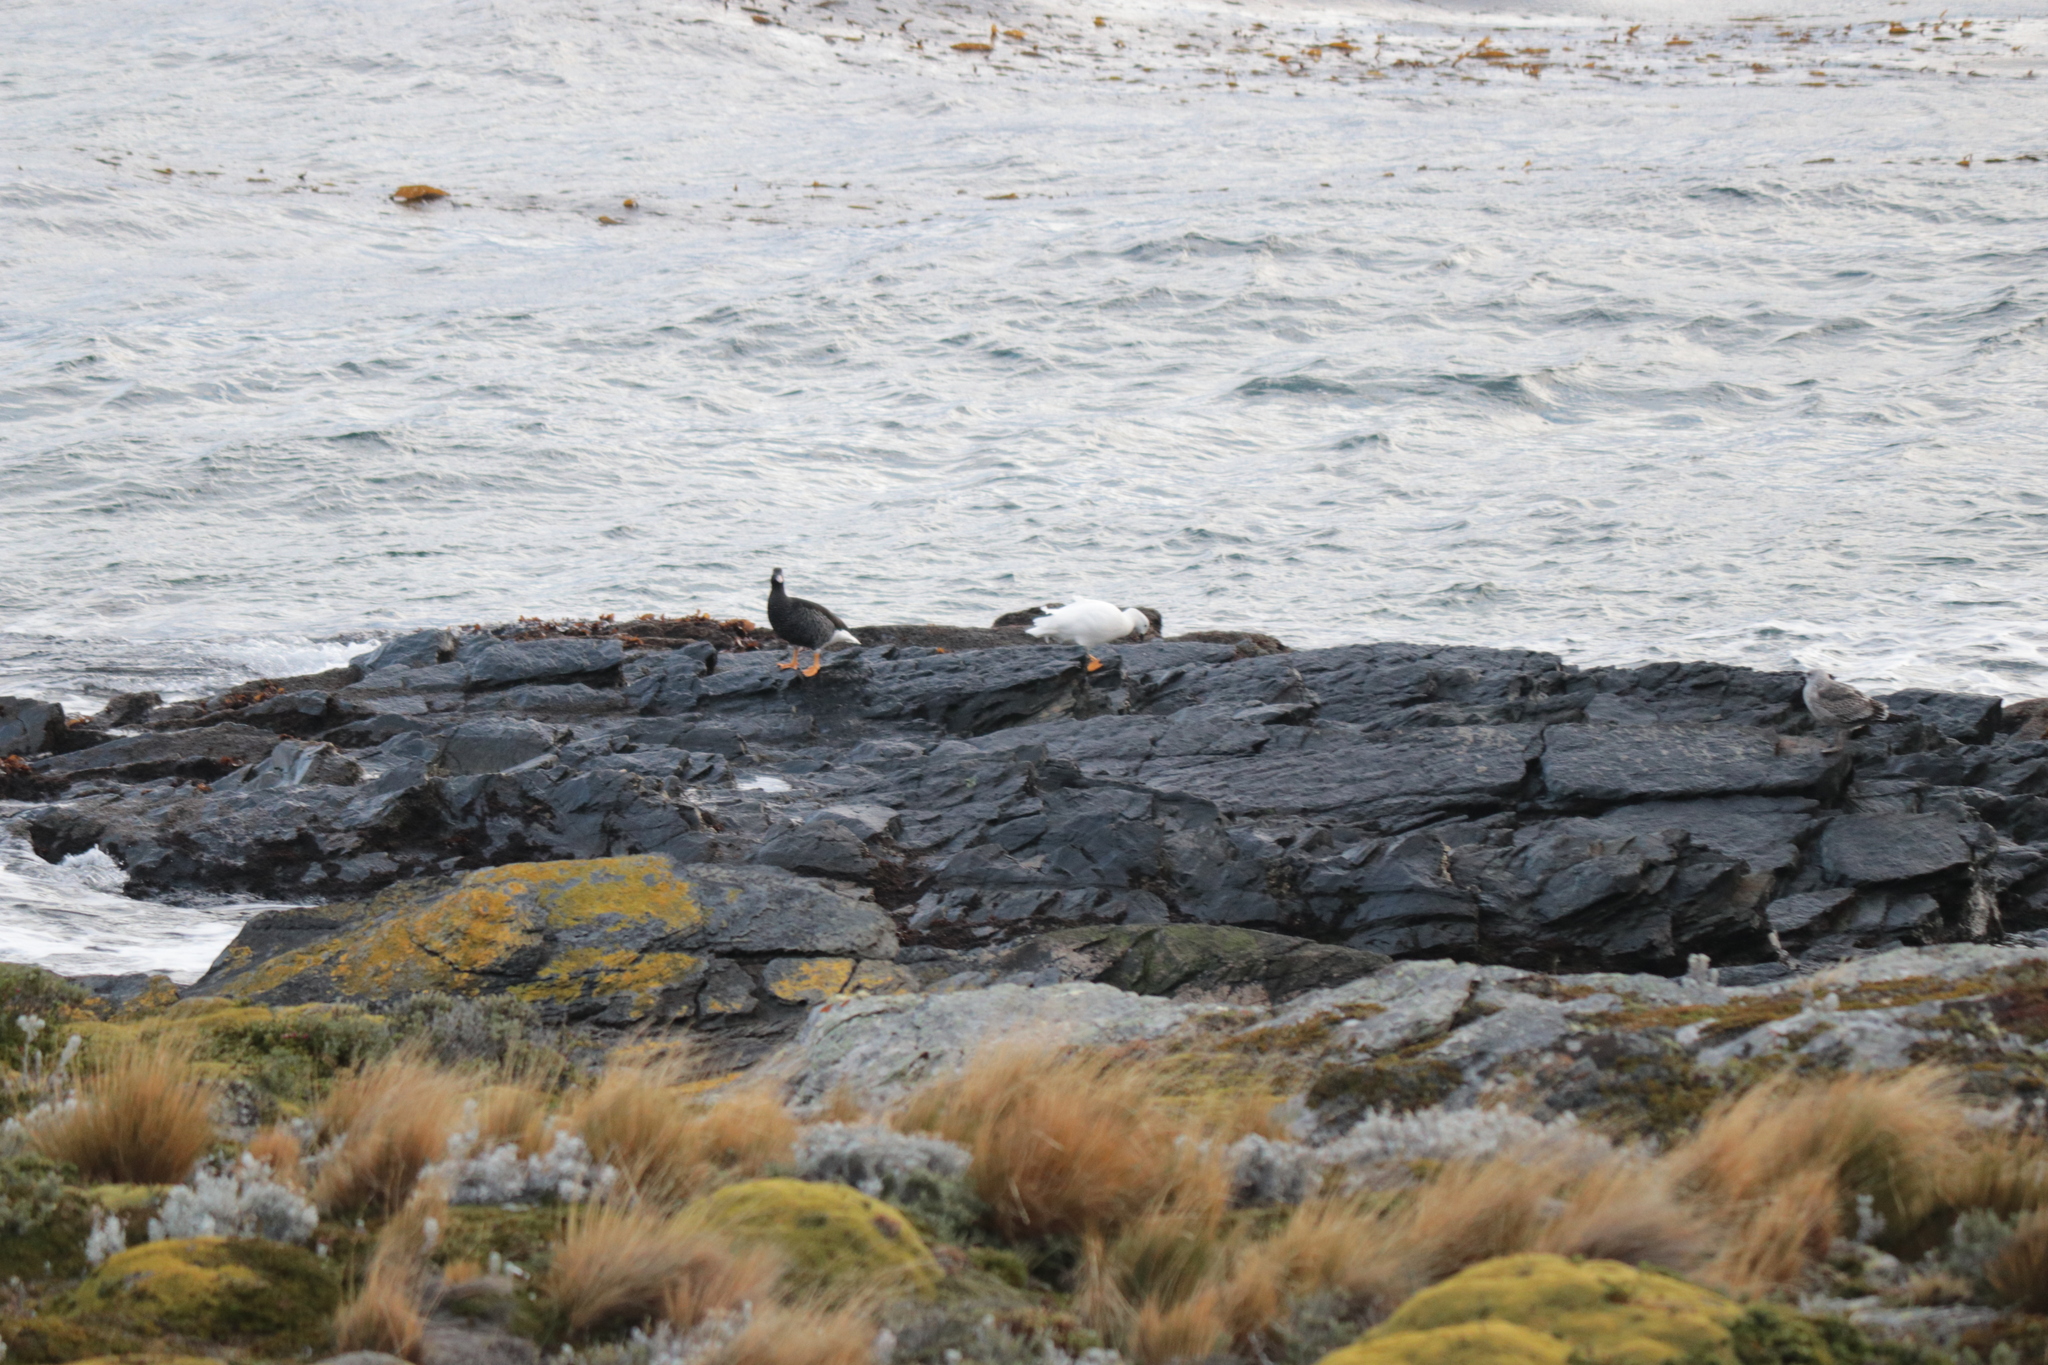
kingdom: Animalia
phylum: Chordata
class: Aves
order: Anseriformes
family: Anatidae
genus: Chloephaga
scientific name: Chloephaga hybrida
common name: Kelp goose
